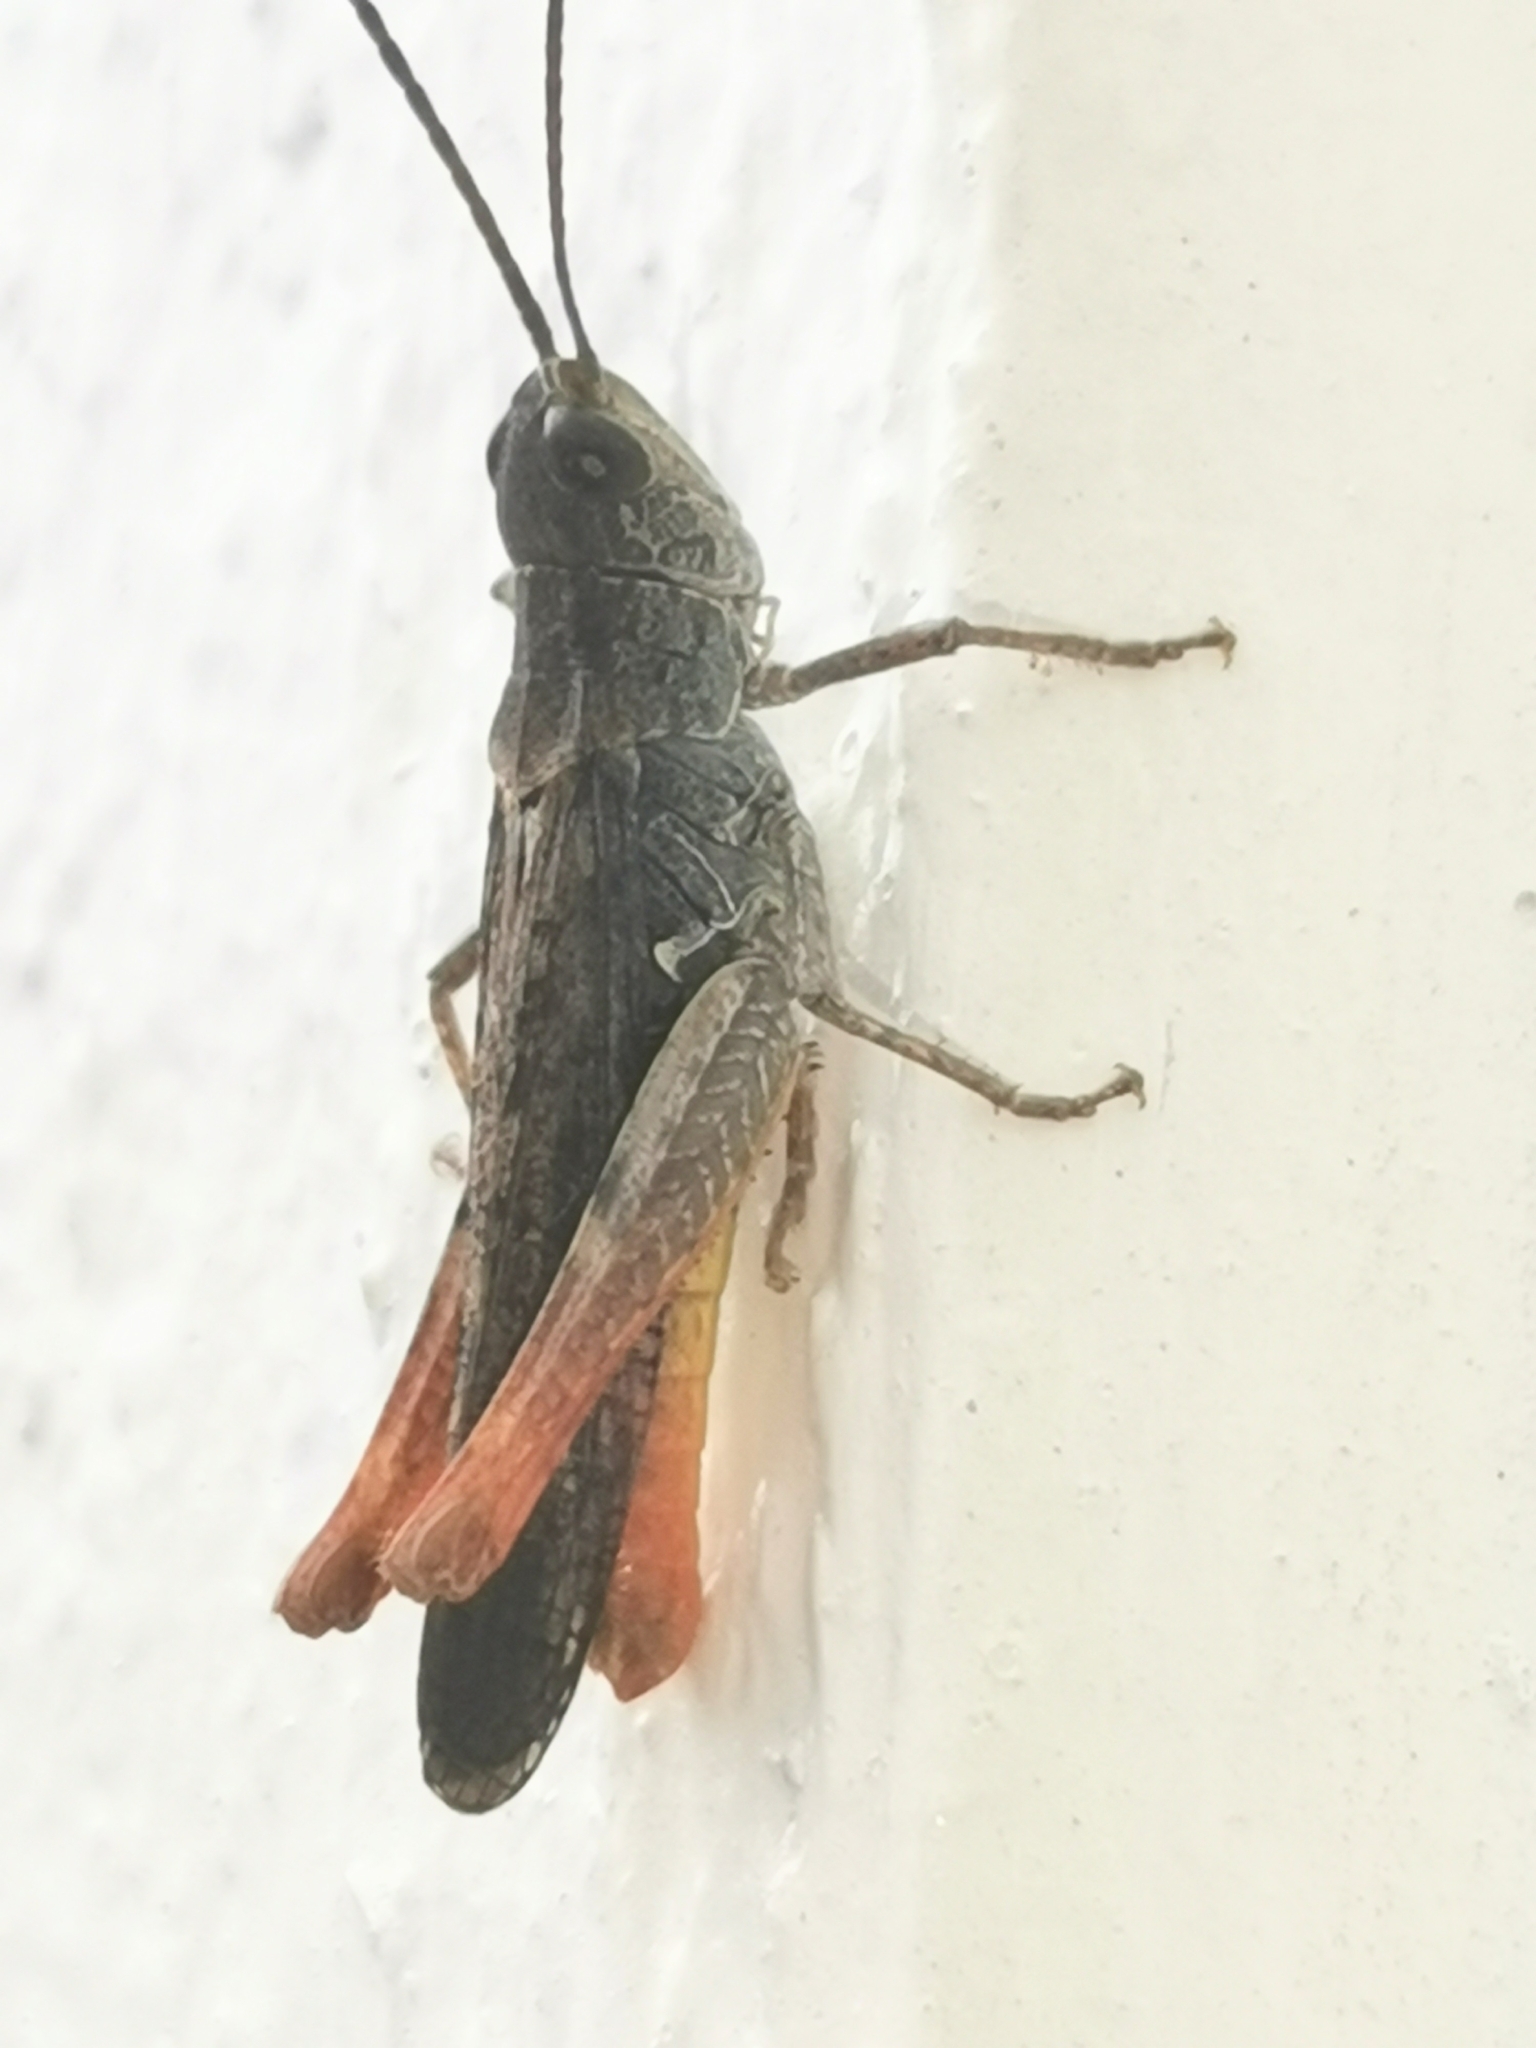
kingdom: Animalia
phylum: Arthropoda
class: Insecta
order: Orthoptera
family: Acrididae
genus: Chorthippus
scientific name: Chorthippus brunneus
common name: Field grasshopper
